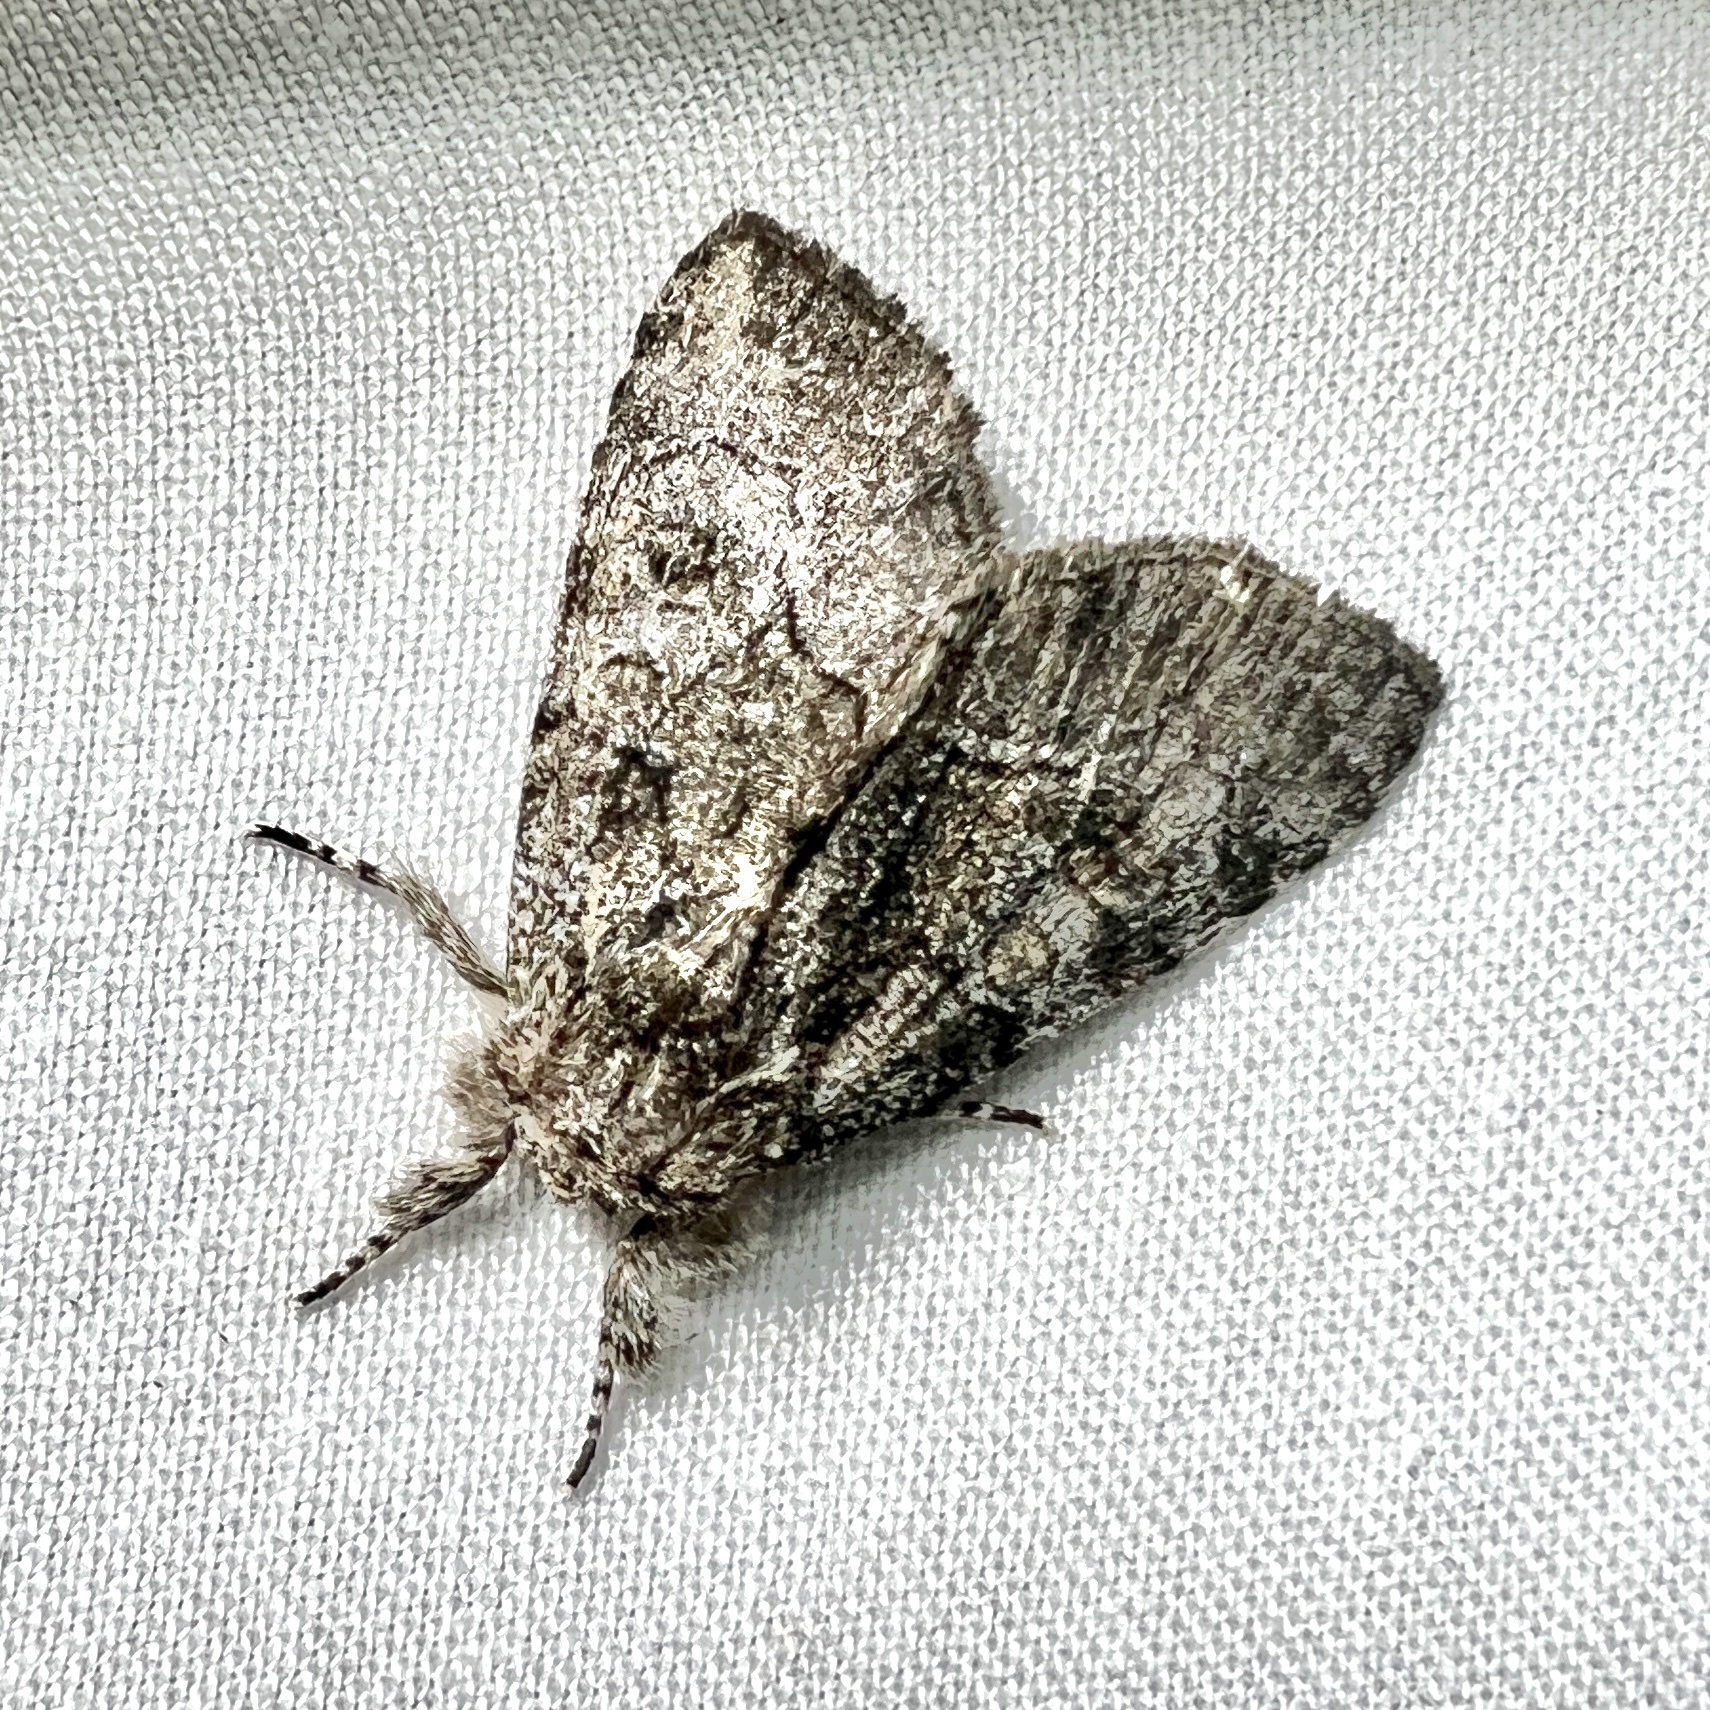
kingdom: Animalia
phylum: Arthropoda
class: Insecta
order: Lepidoptera
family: Noctuidae
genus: Raphia
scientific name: Raphia frater
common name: Brother
